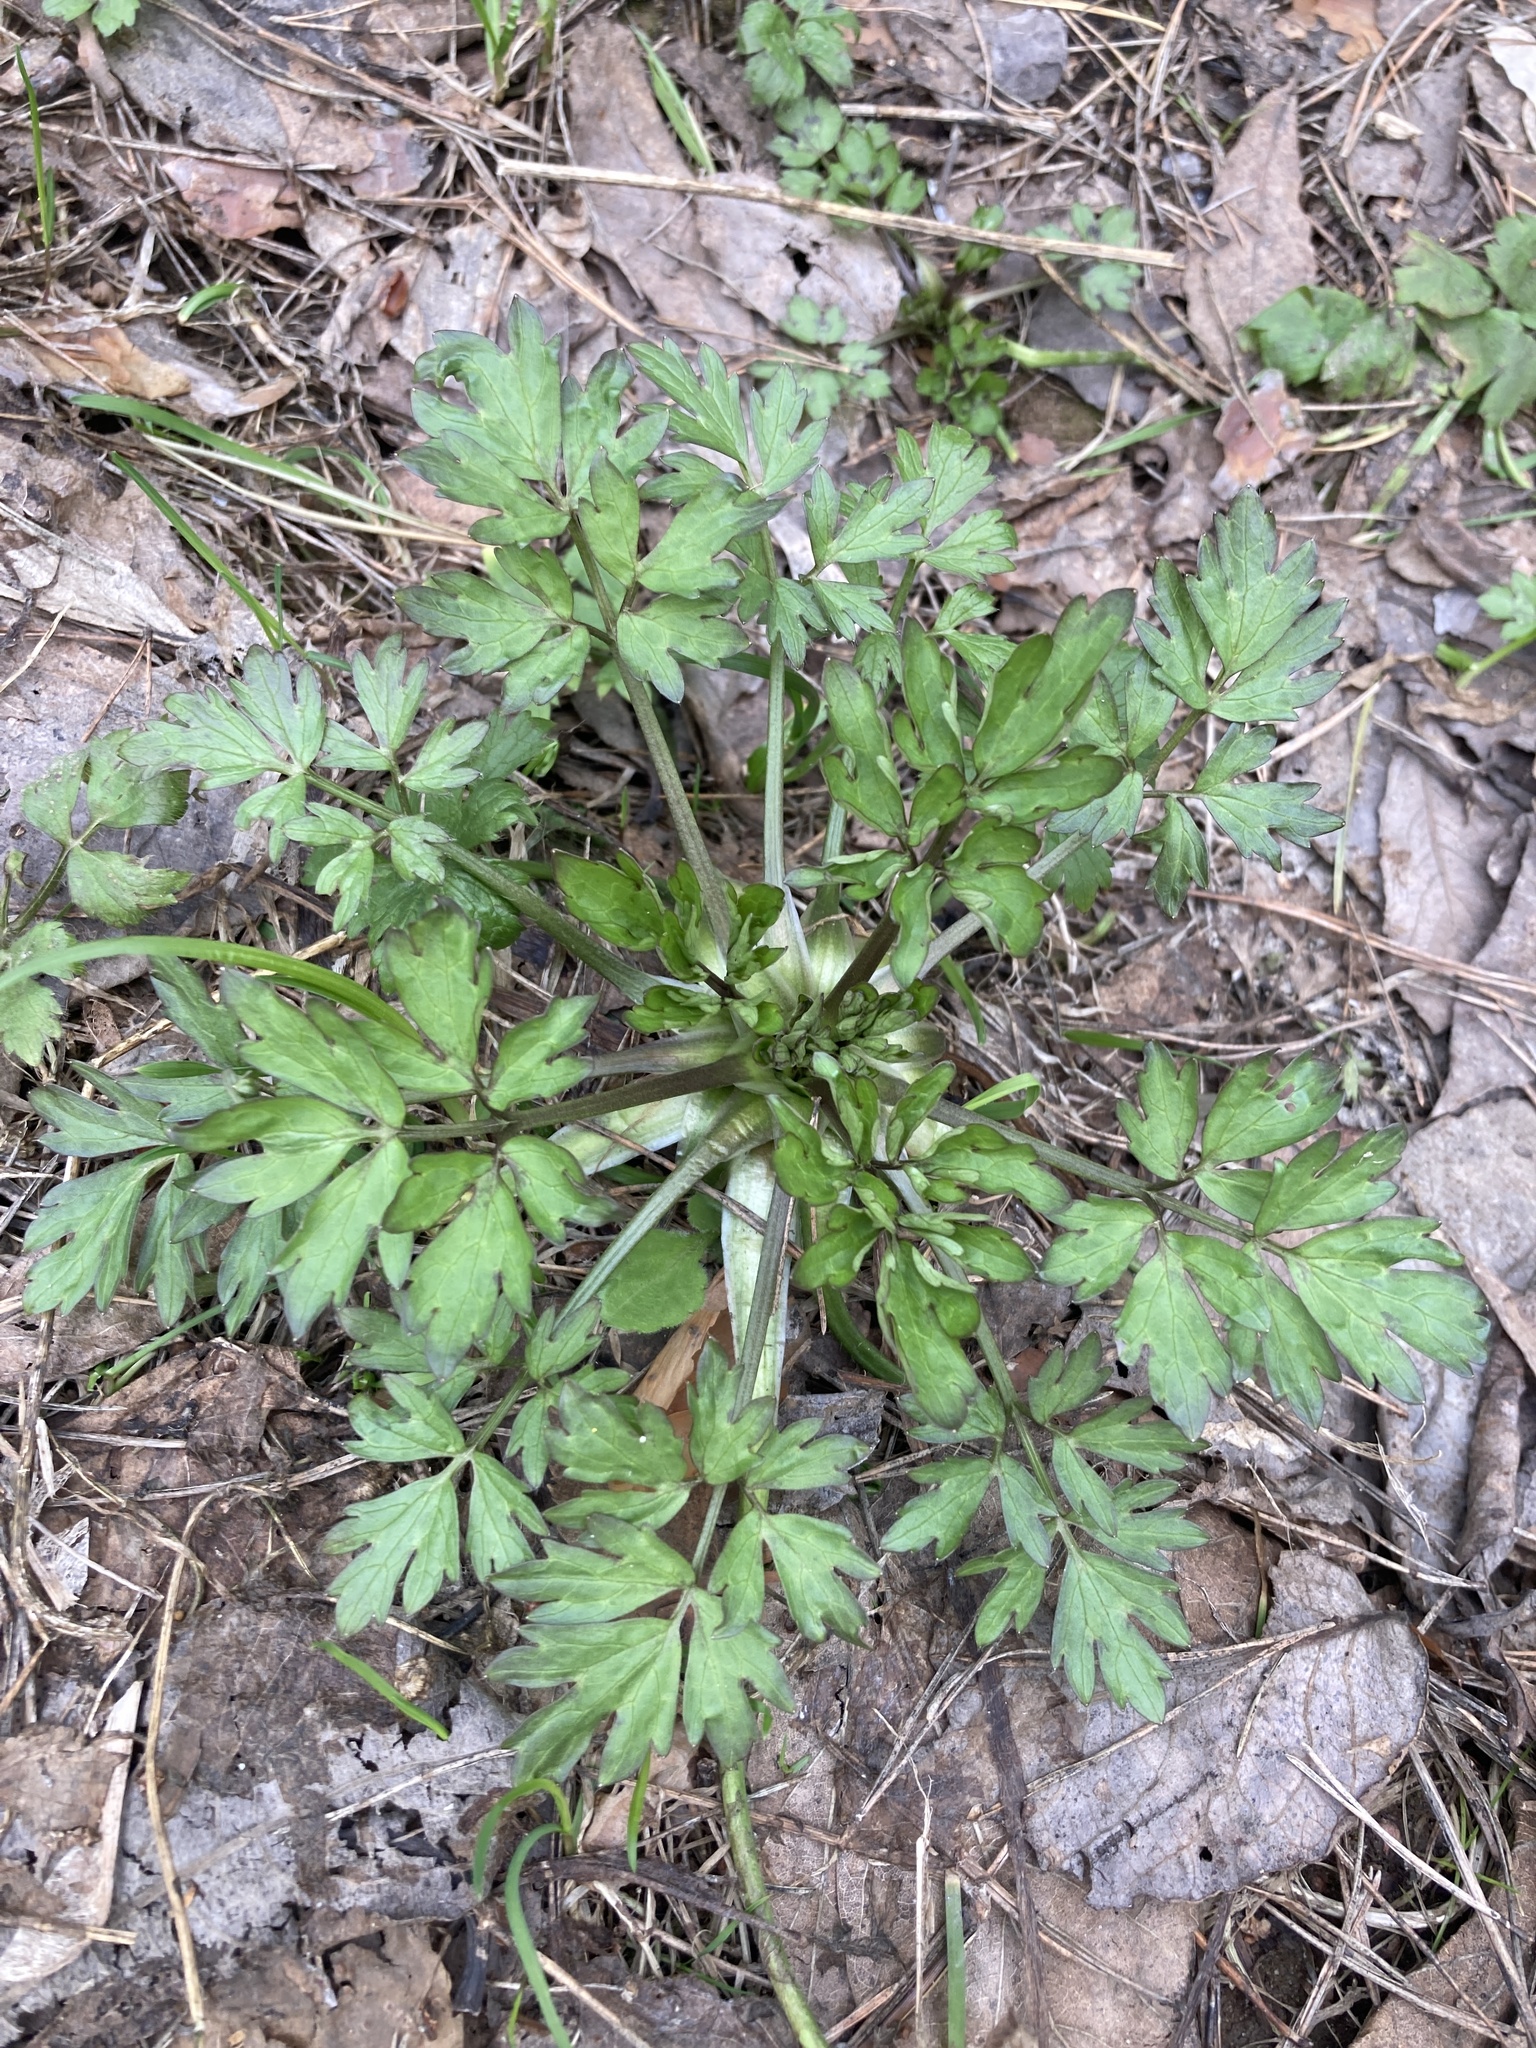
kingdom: Plantae
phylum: Tracheophyta
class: Magnoliopsida
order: Ranunculales
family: Ranunculaceae
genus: Ranunculus
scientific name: Ranunculus repens
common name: Creeping buttercup
